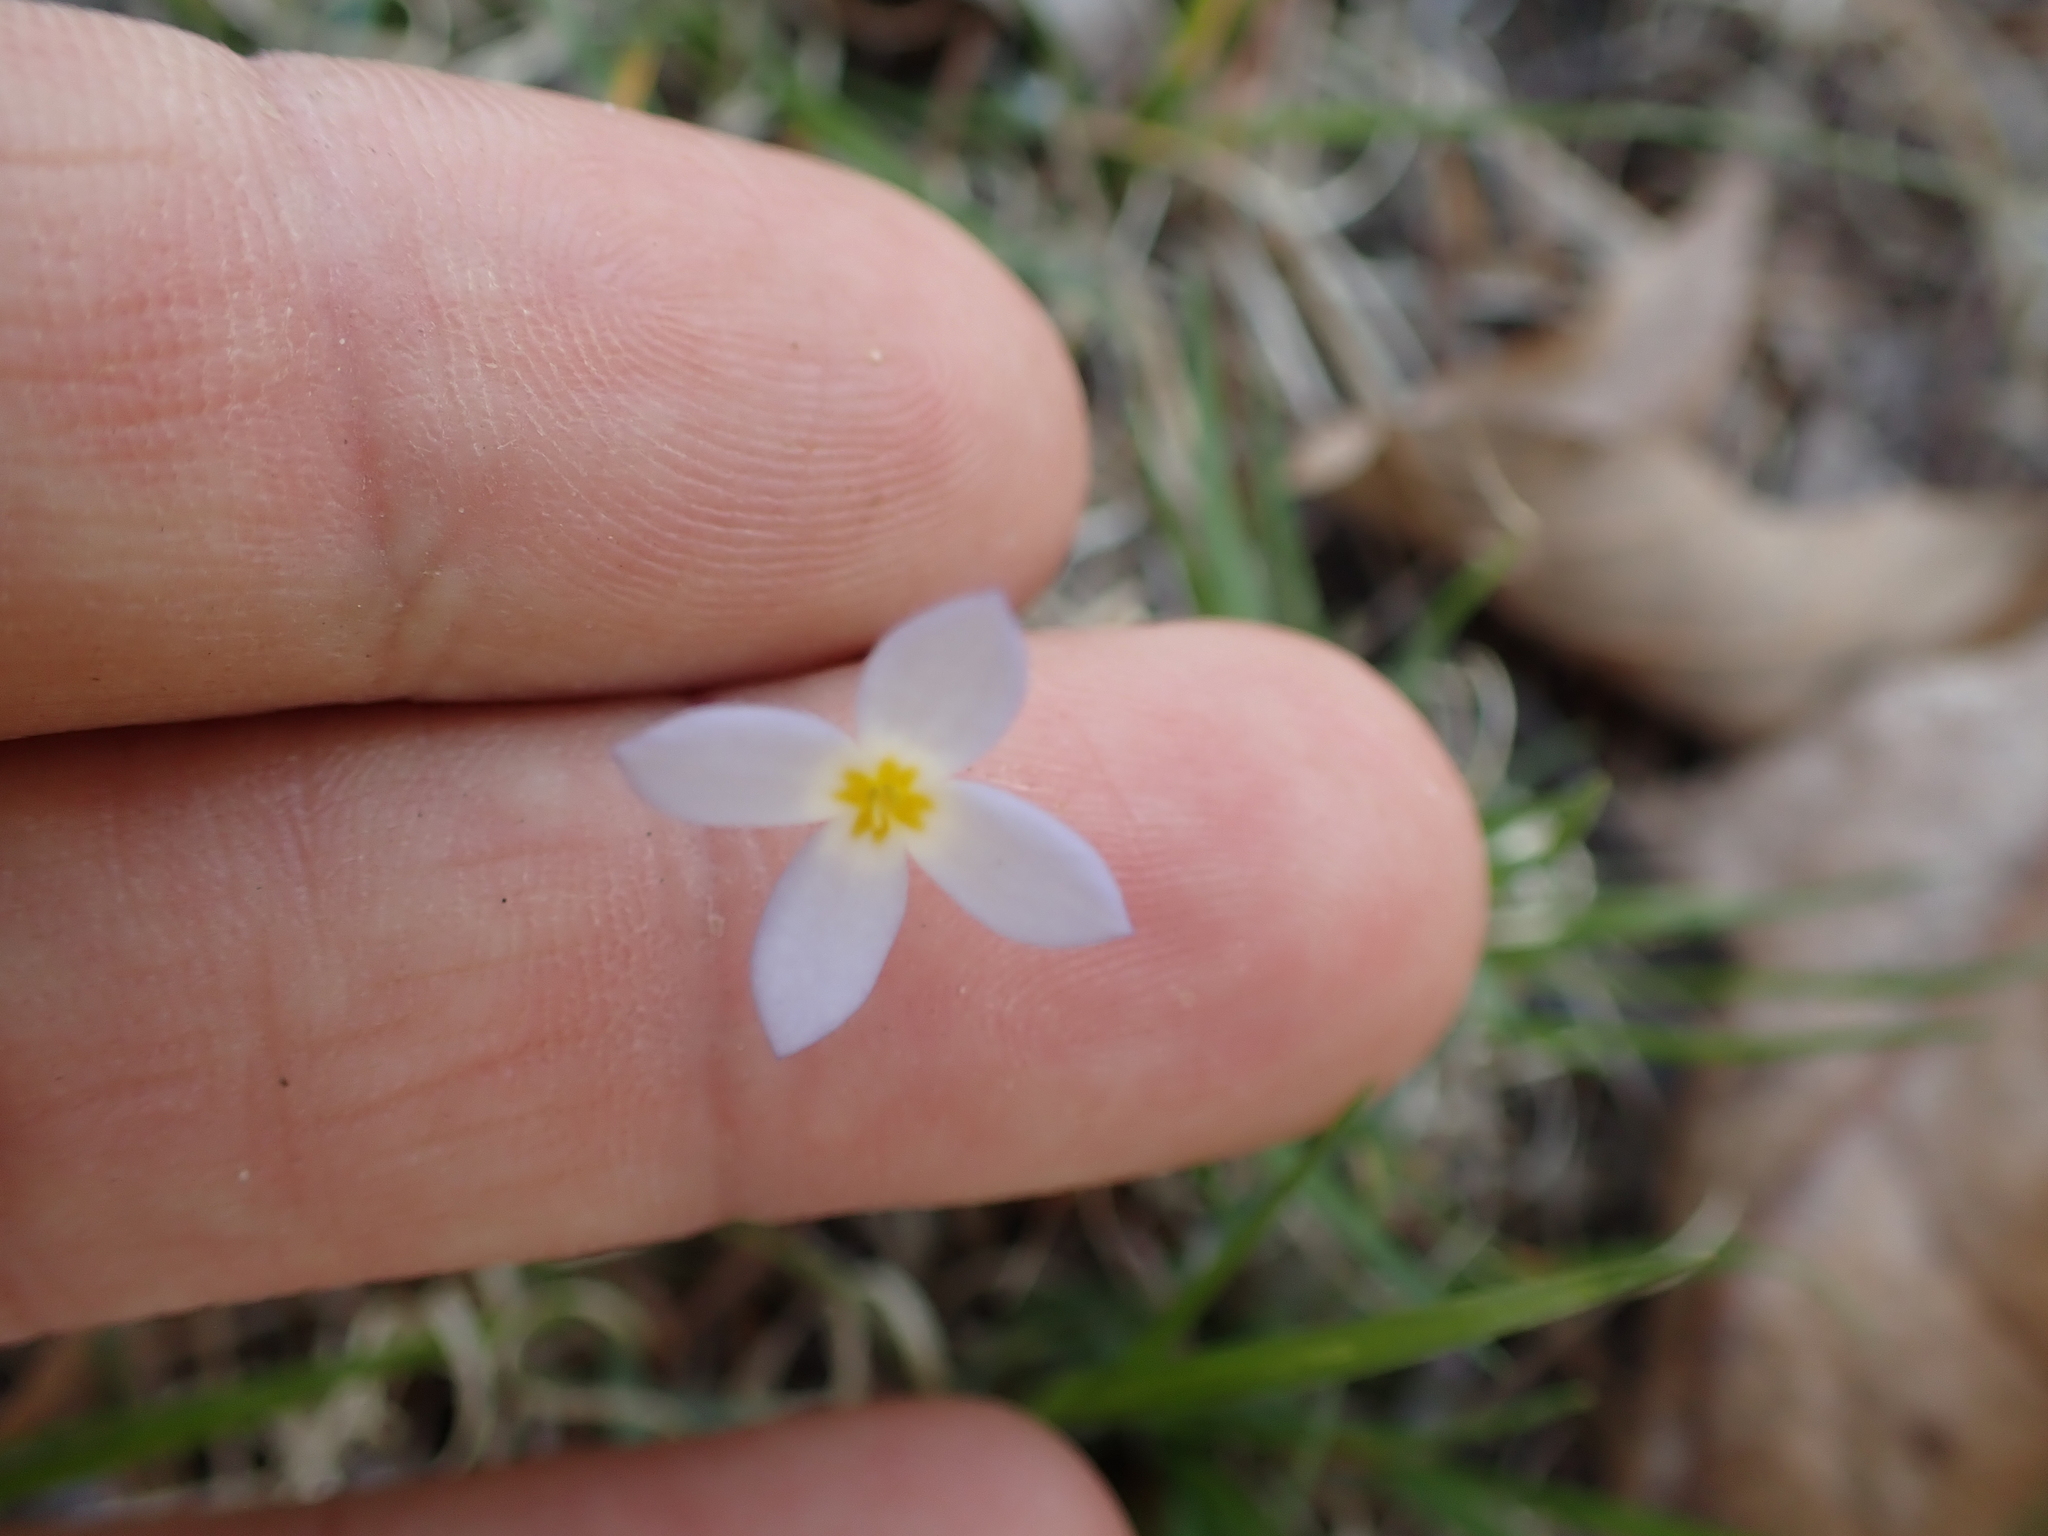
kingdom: Plantae
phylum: Tracheophyta
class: Magnoliopsida
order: Gentianales
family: Rubiaceae
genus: Houstonia
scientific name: Houstonia caerulea
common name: Bluets
